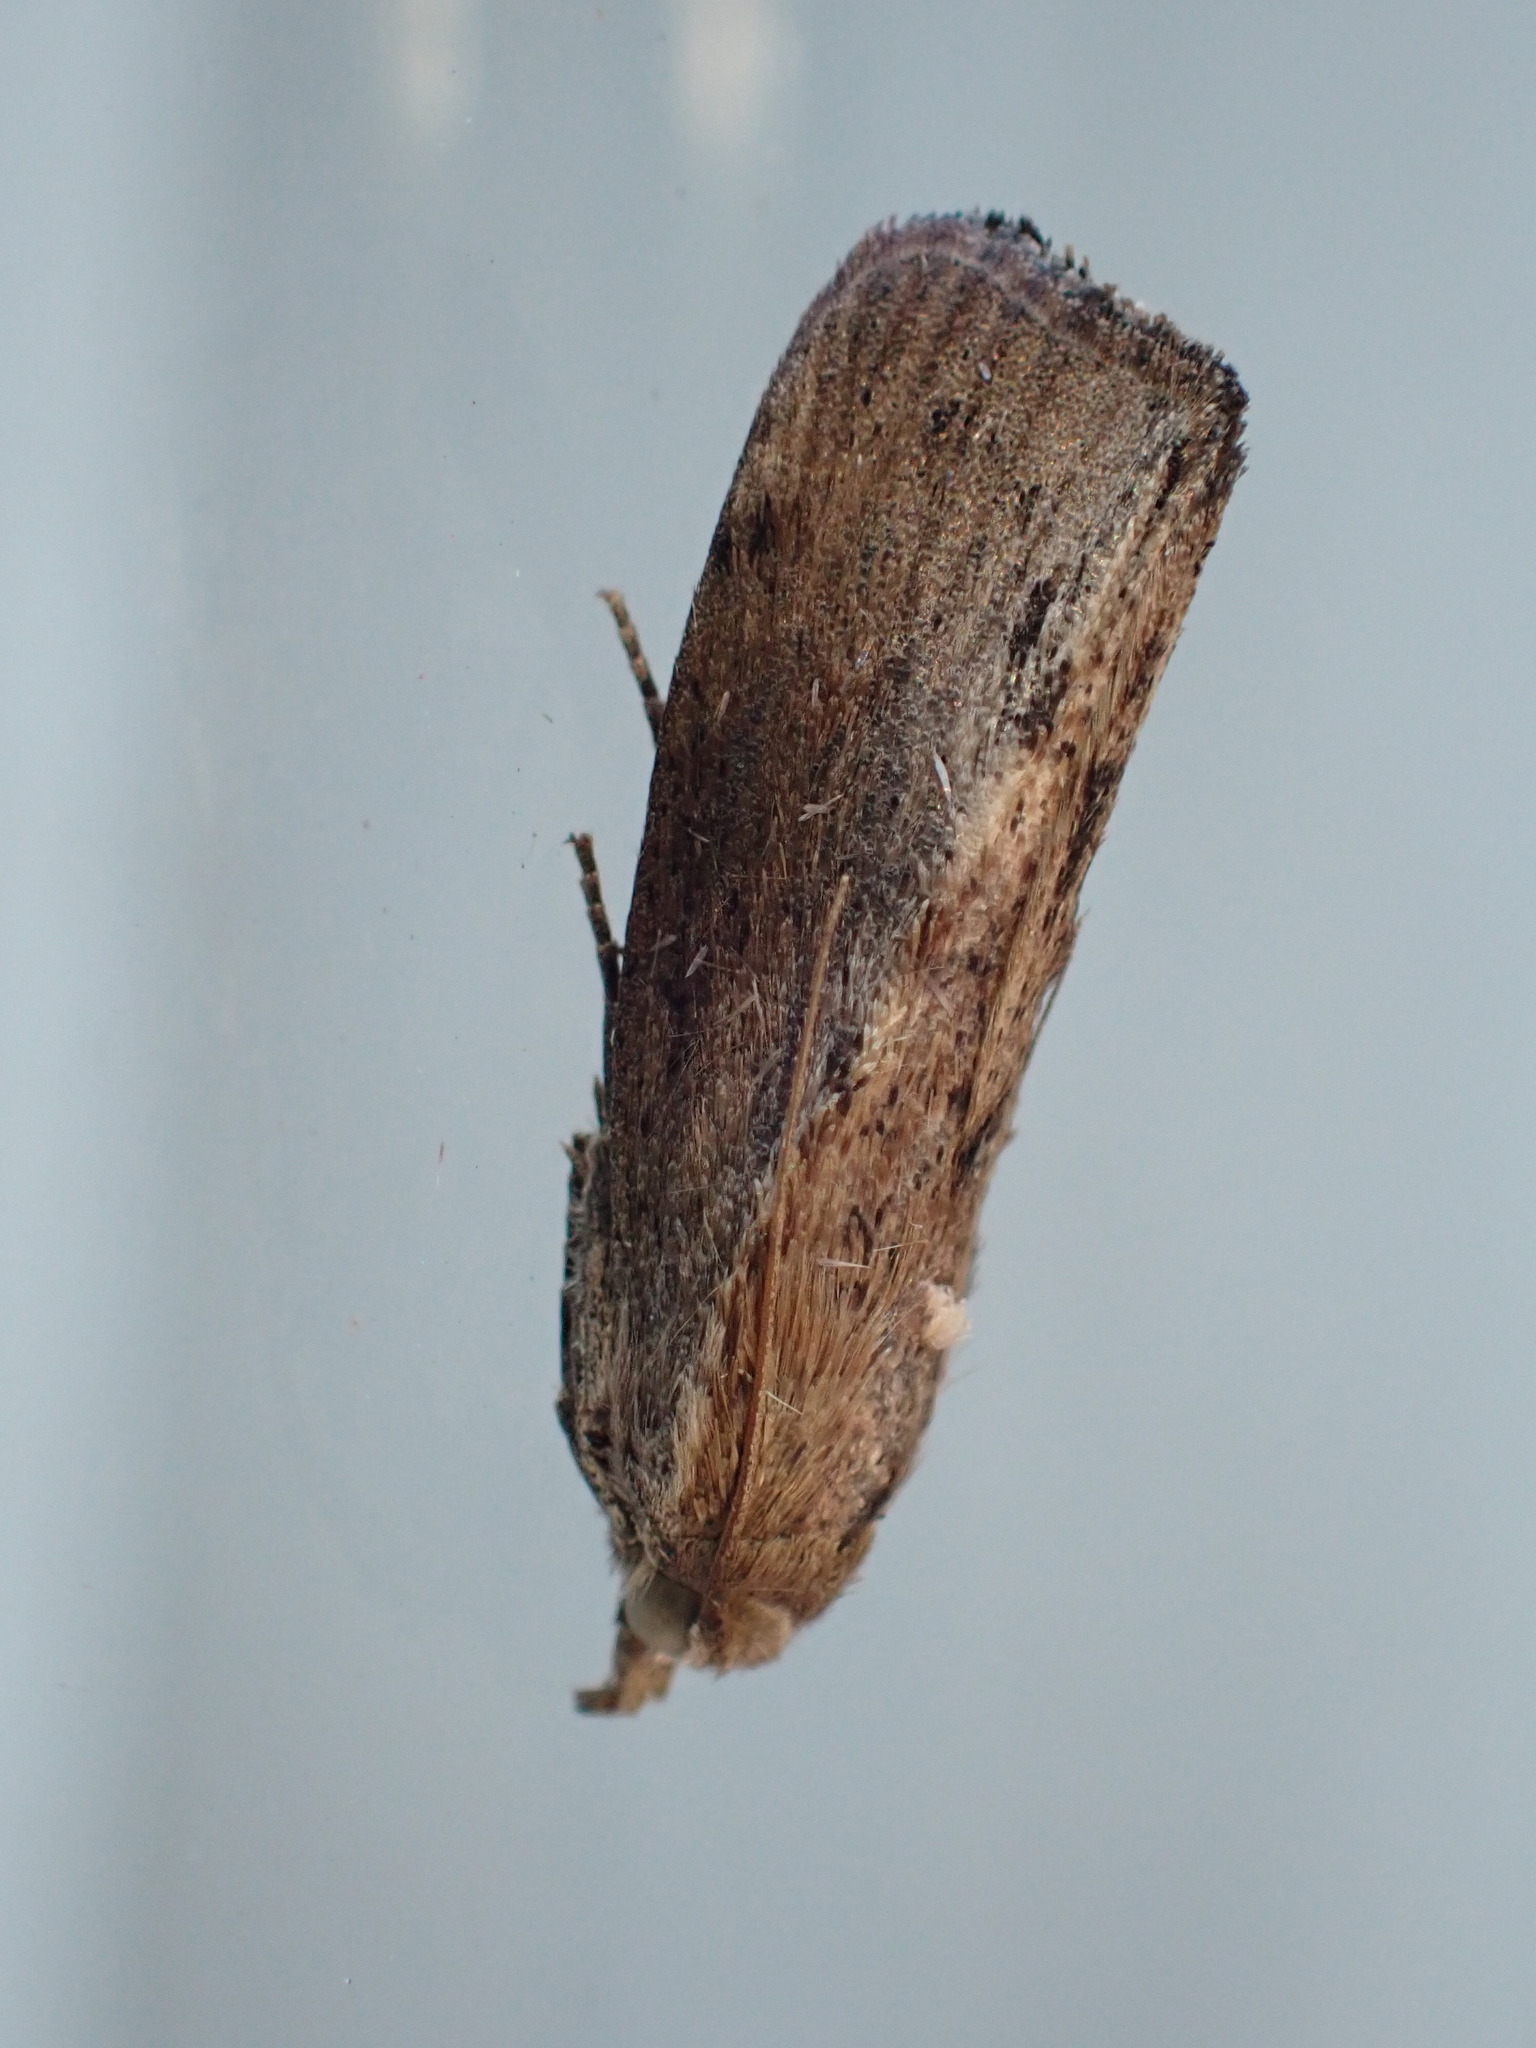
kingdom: Animalia
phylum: Arthropoda
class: Insecta
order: Lepidoptera
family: Pyralidae
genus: Galleria
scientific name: Galleria mellonella
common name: Greater wax moth
